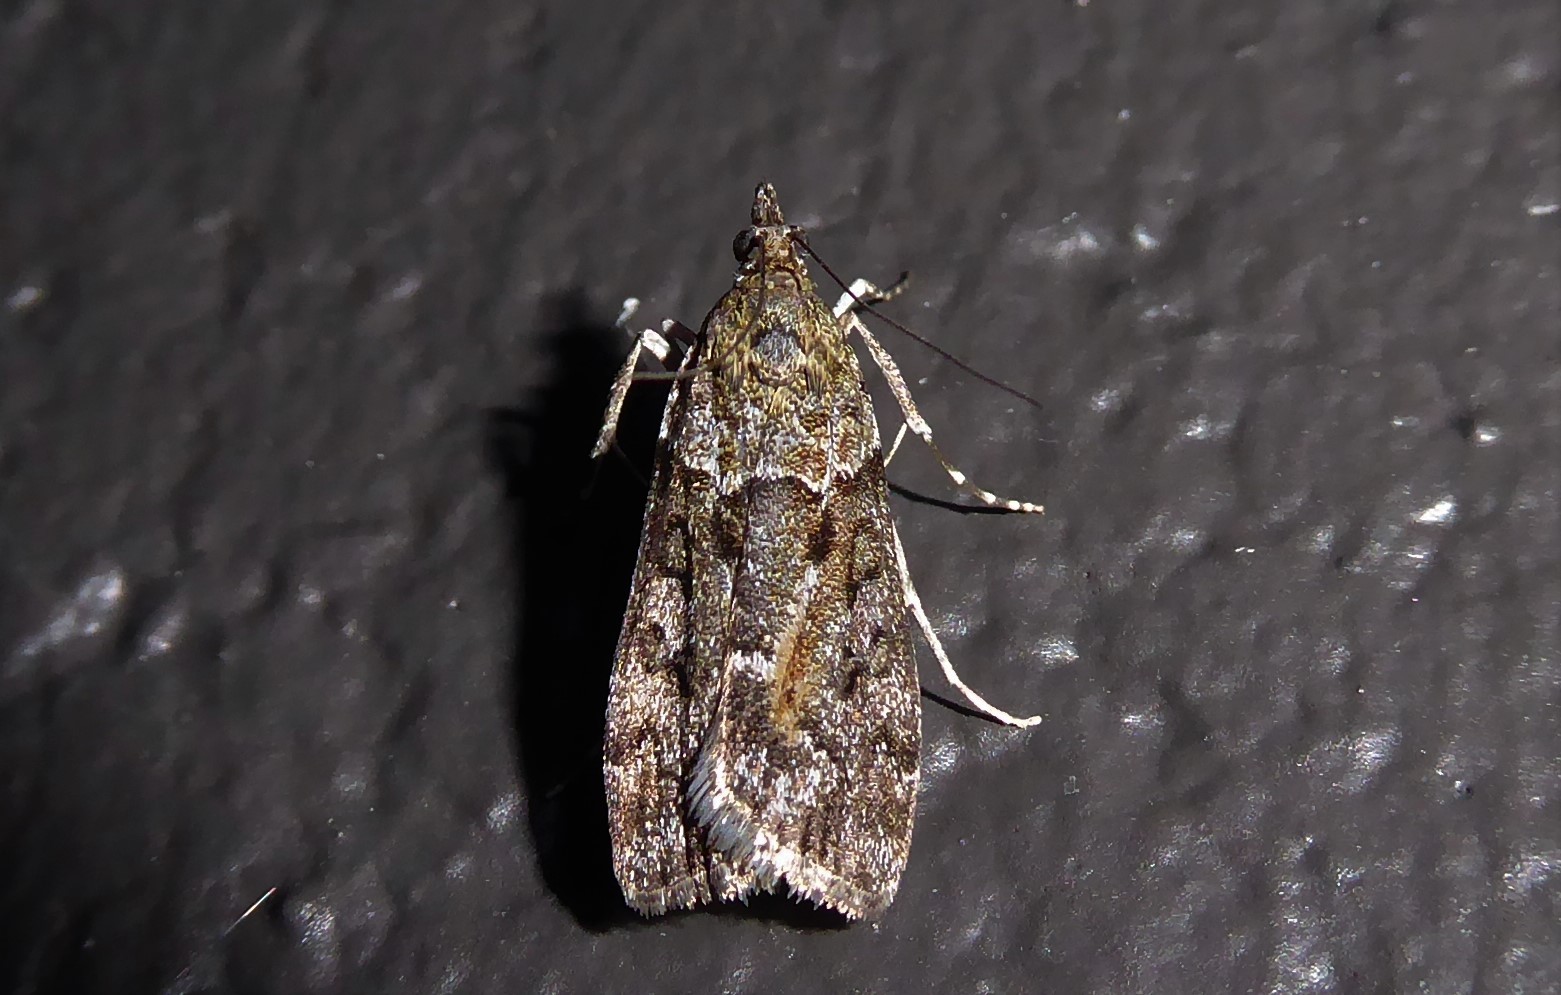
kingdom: Animalia
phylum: Arthropoda
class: Insecta
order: Lepidoptera
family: Crambidae
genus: Eudonia
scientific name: Eudonia submarginalis
